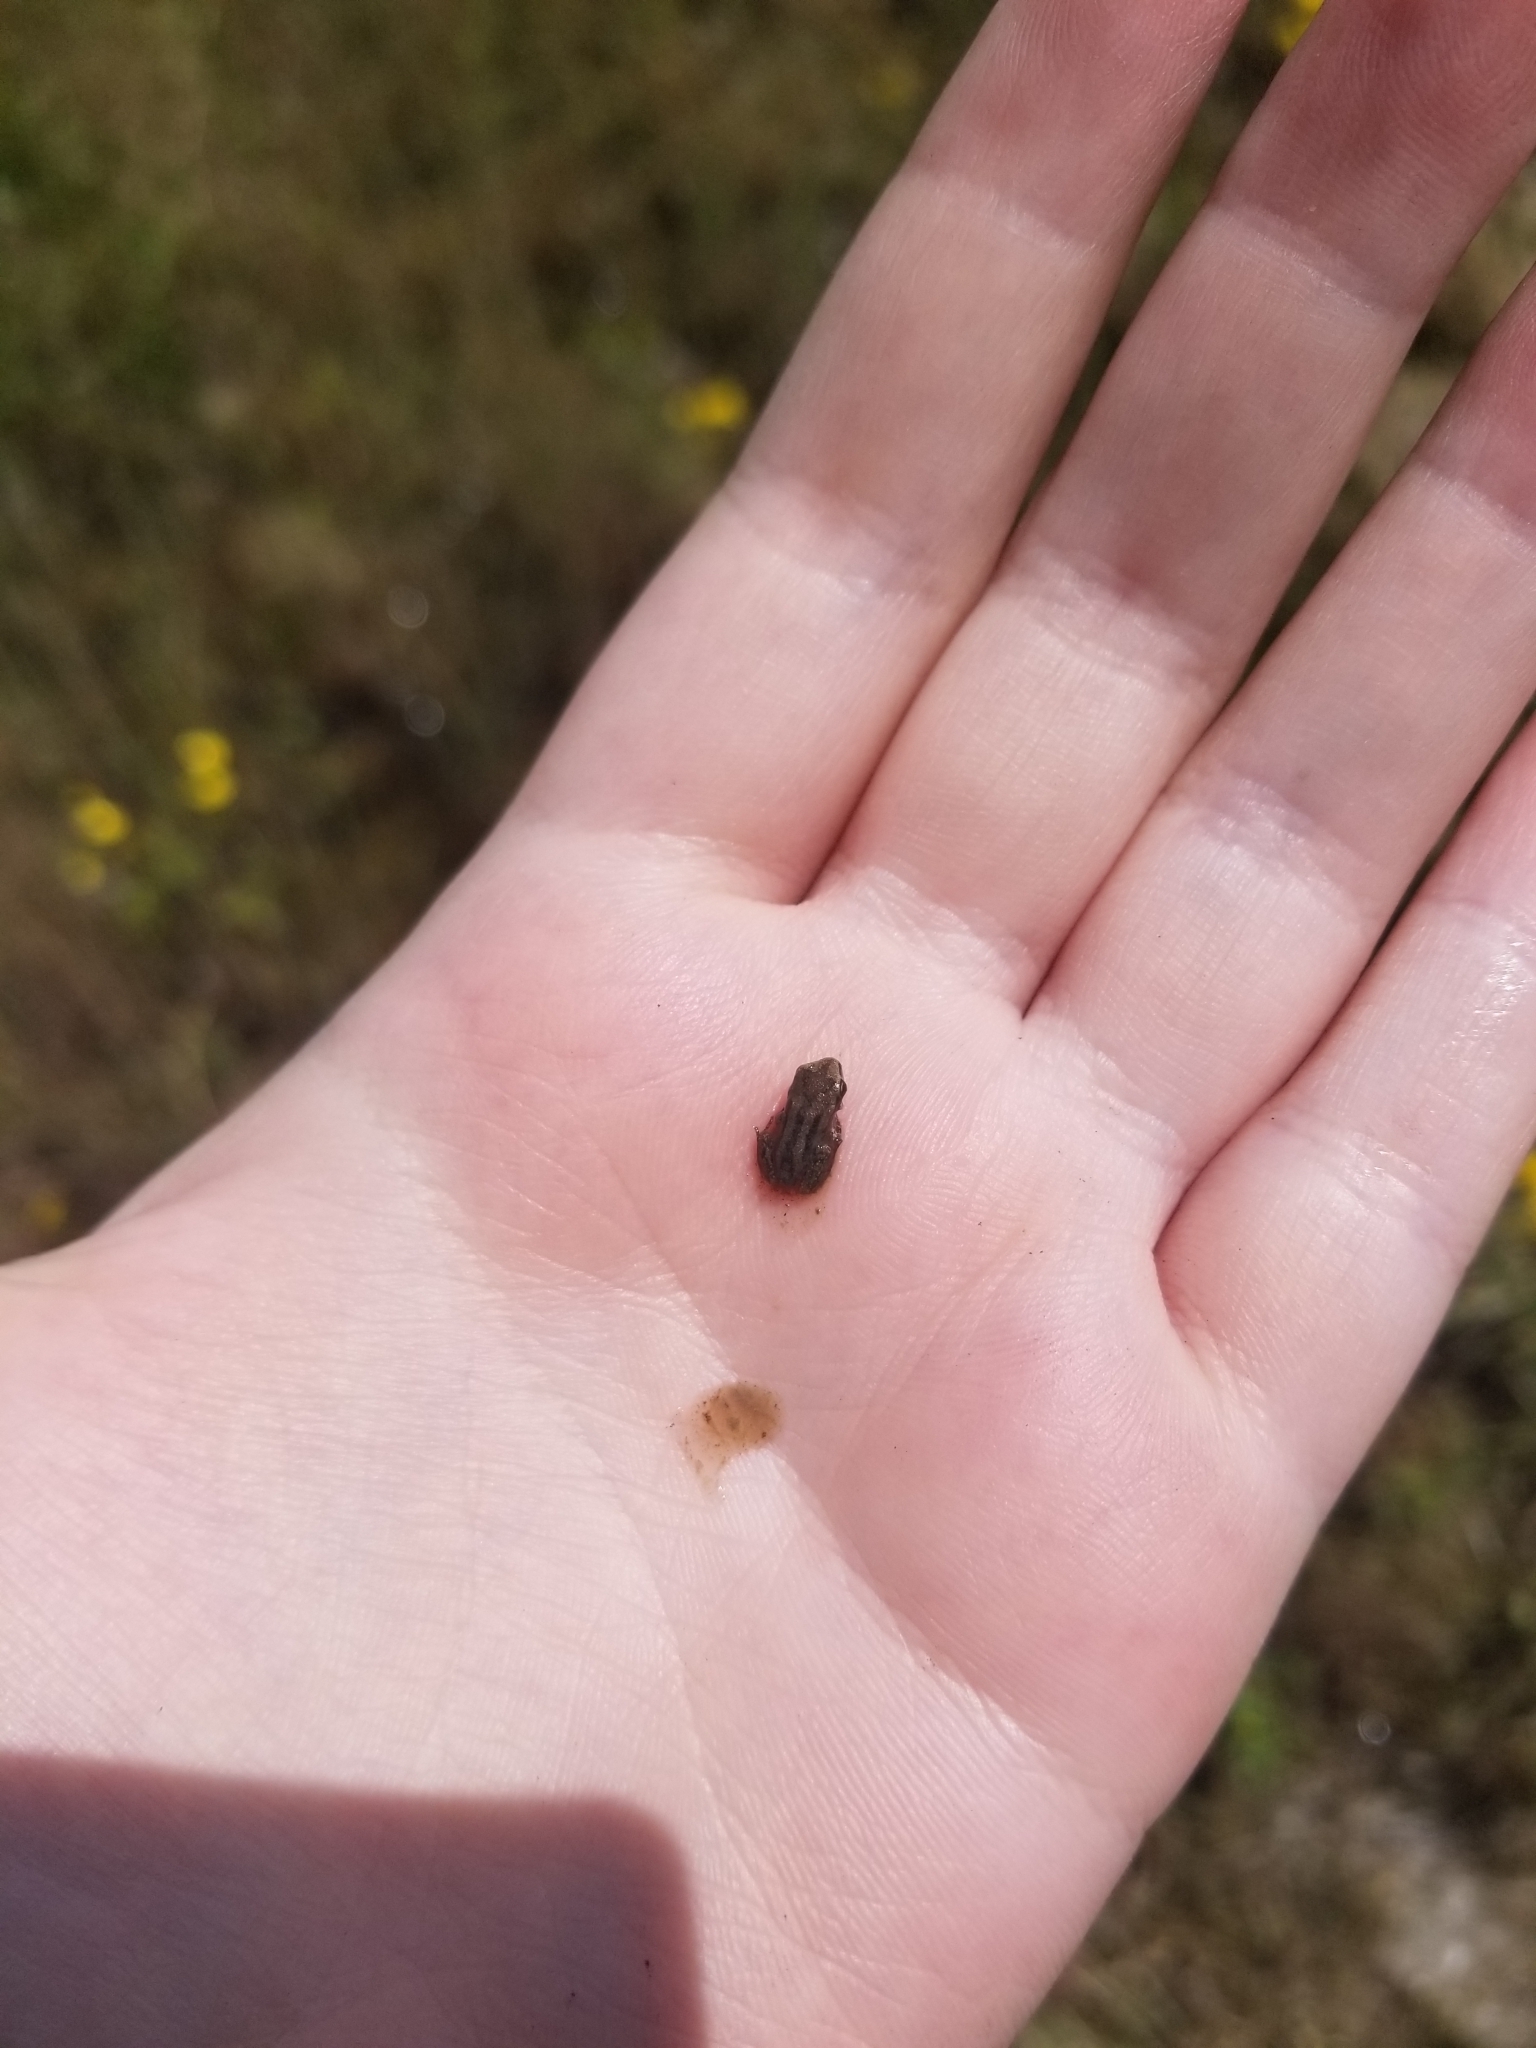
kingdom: Animalia
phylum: Chordata
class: Amphibia
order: Anura
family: Hylidae
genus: Pseudacris
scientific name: Pseudacris triseriata
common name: Western chorus frog
